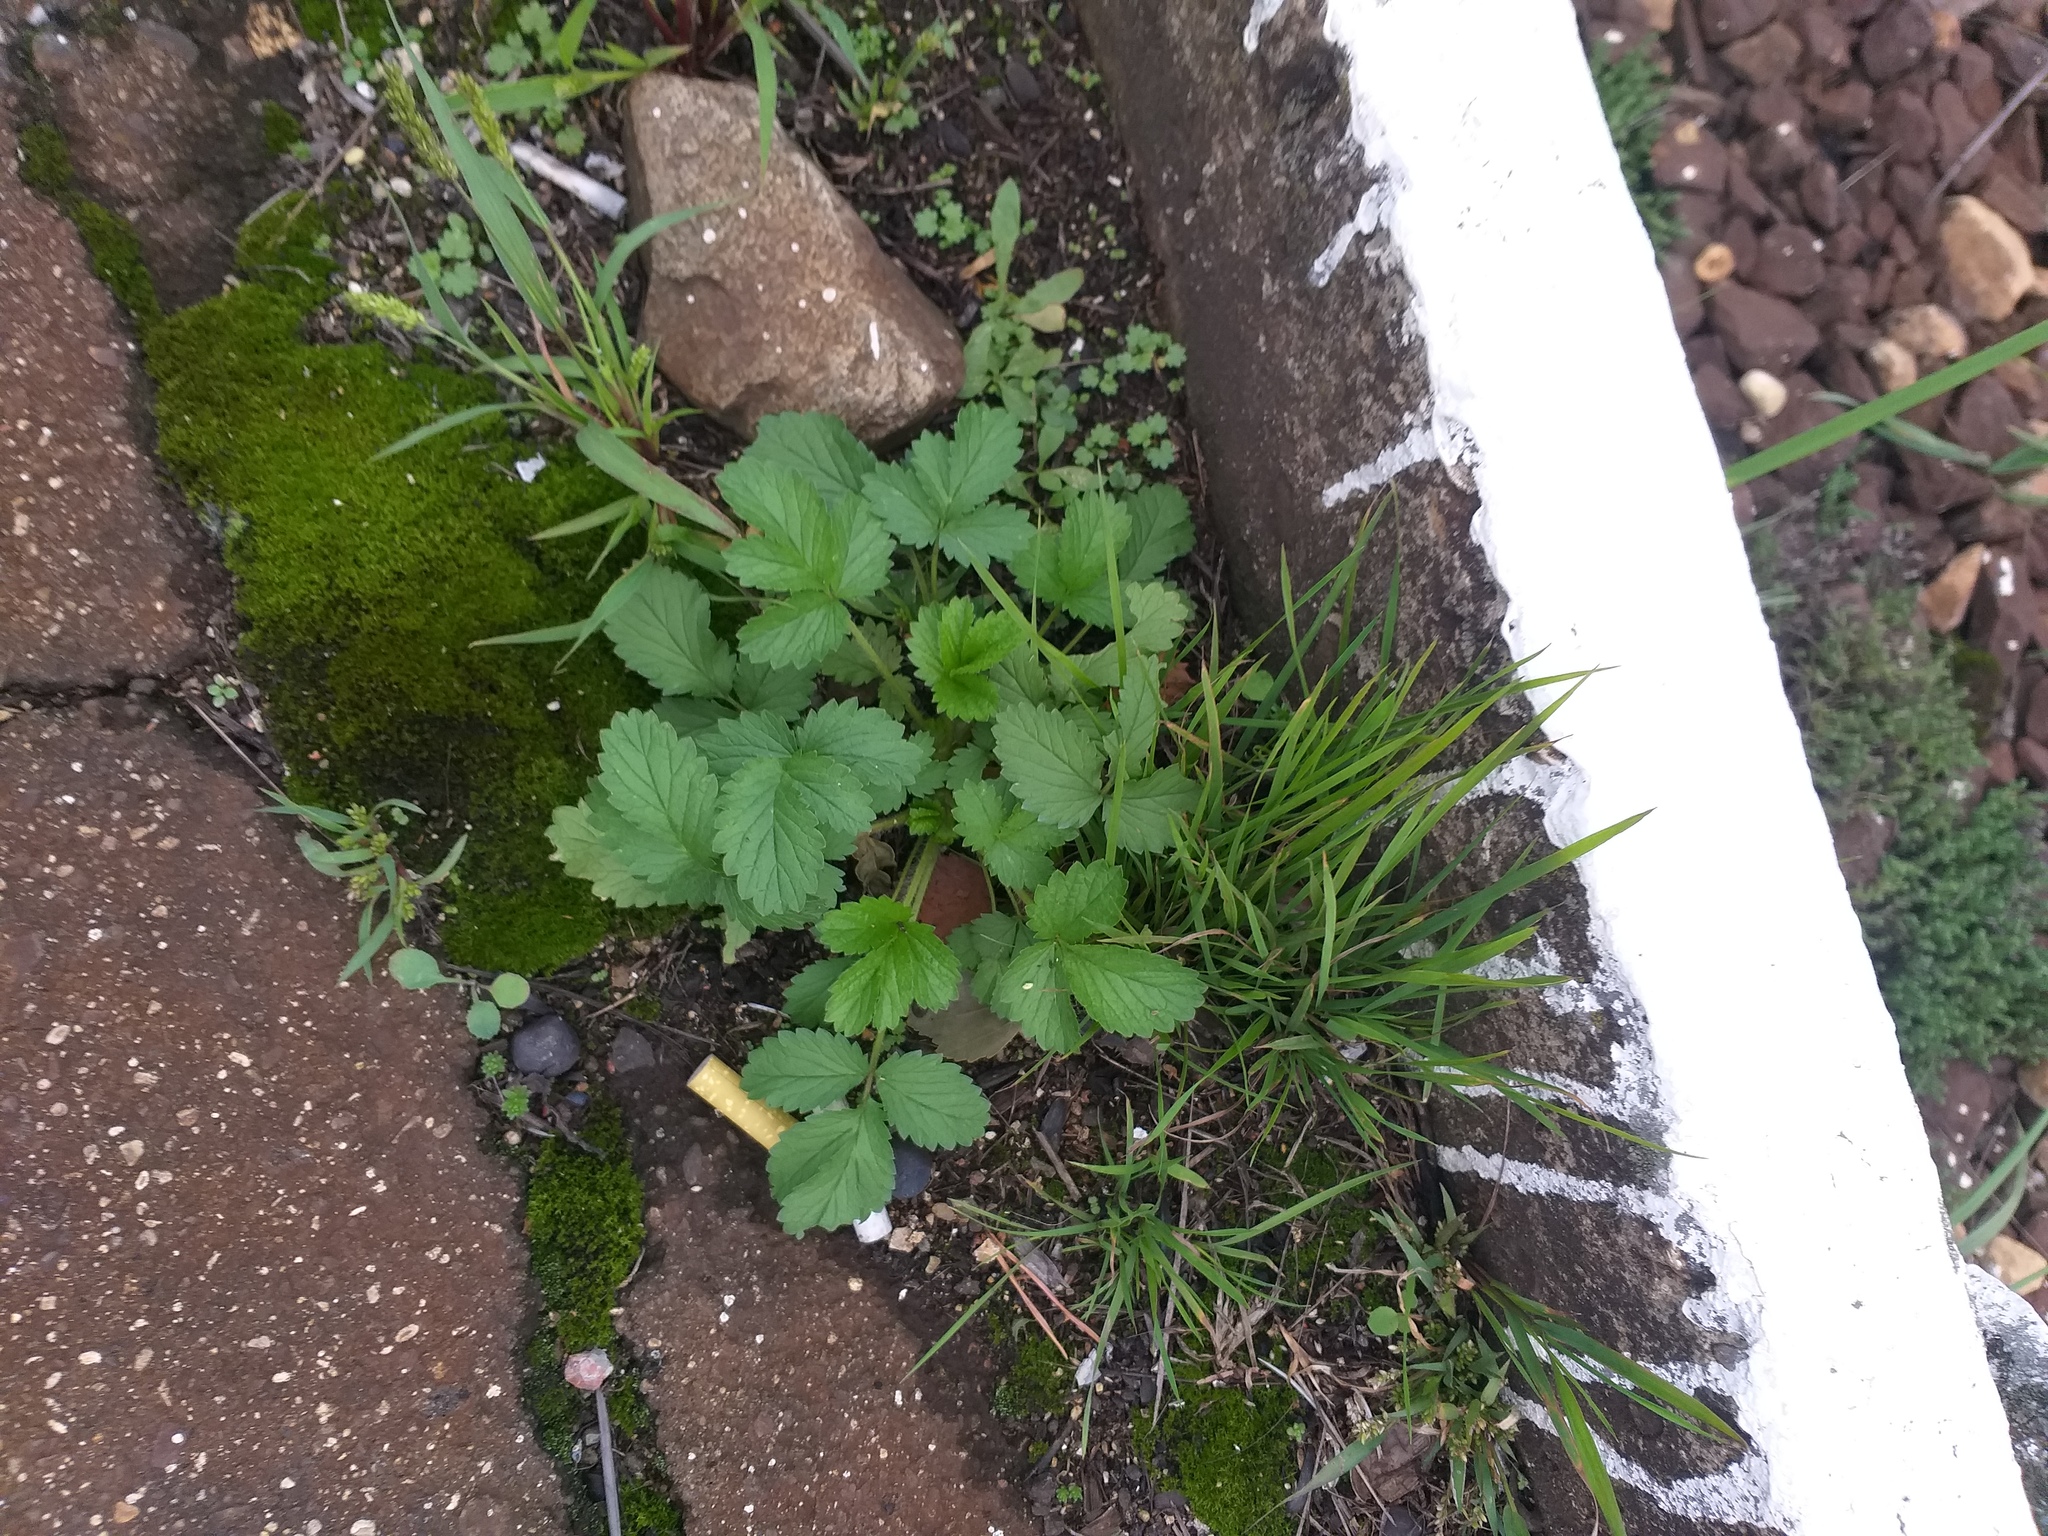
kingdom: Plantae
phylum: Tracheophyta
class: Magnoliopsida
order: Rosales
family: Rosaceae
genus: Potentilla
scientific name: Potentilla norvegica
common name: Ternate-leaved cinquefoil
